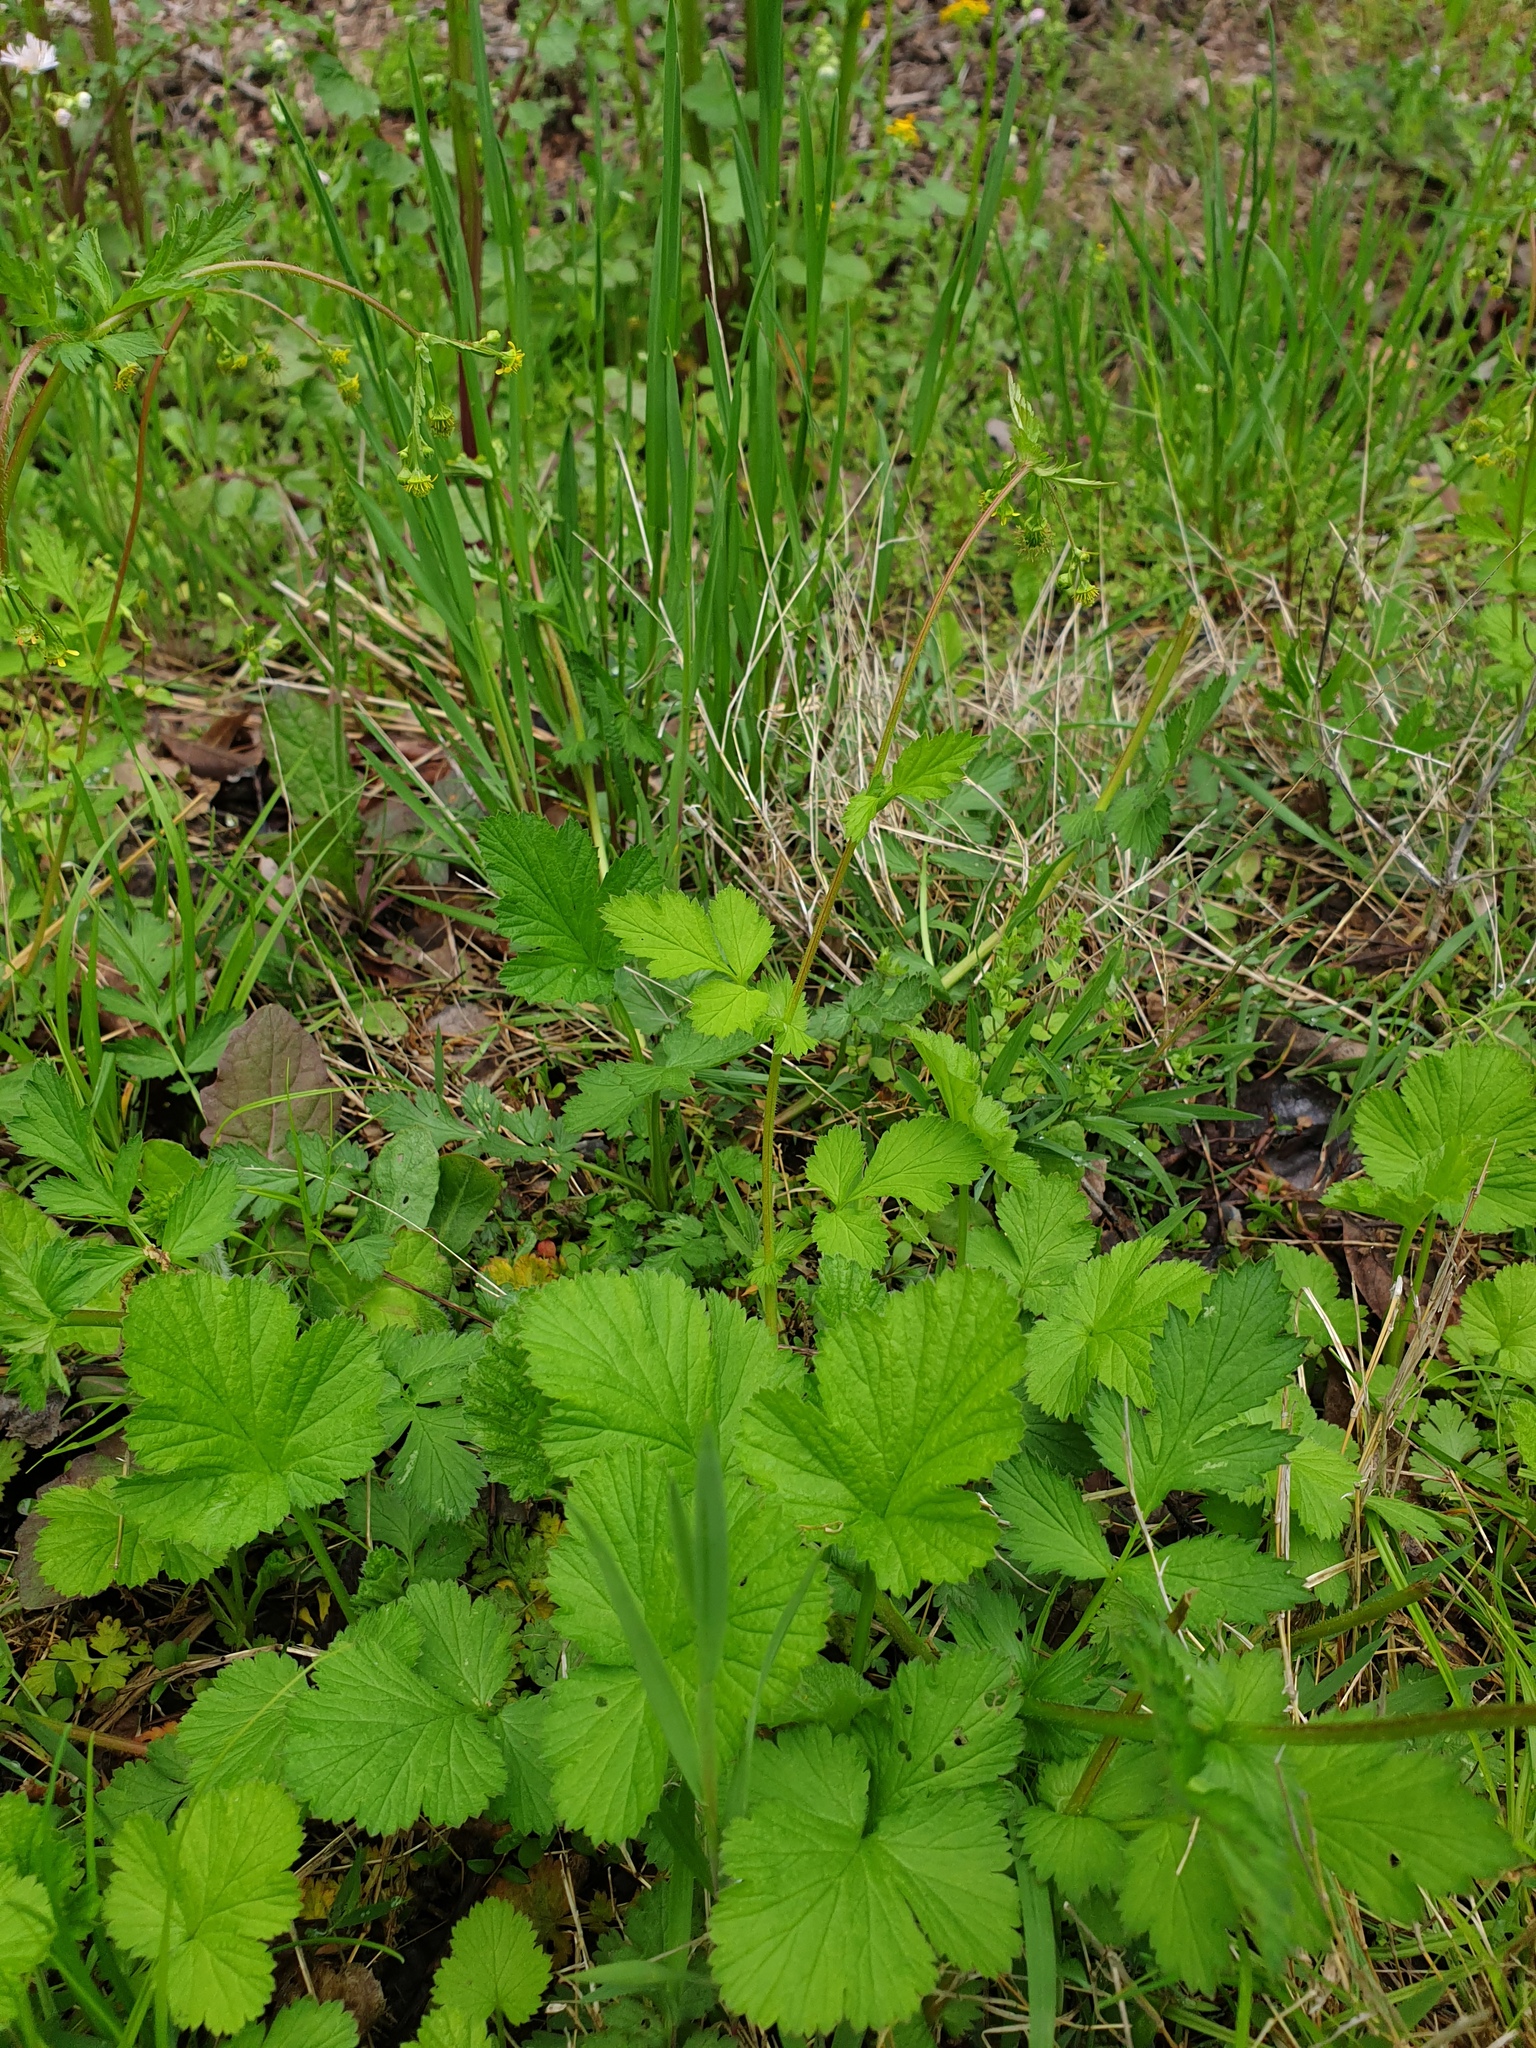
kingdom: Plantae
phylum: Tracheophyta
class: Magnoliopsida
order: Rosales
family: Rosaceae
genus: Geum
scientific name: Geum vernum
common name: Spring avens
